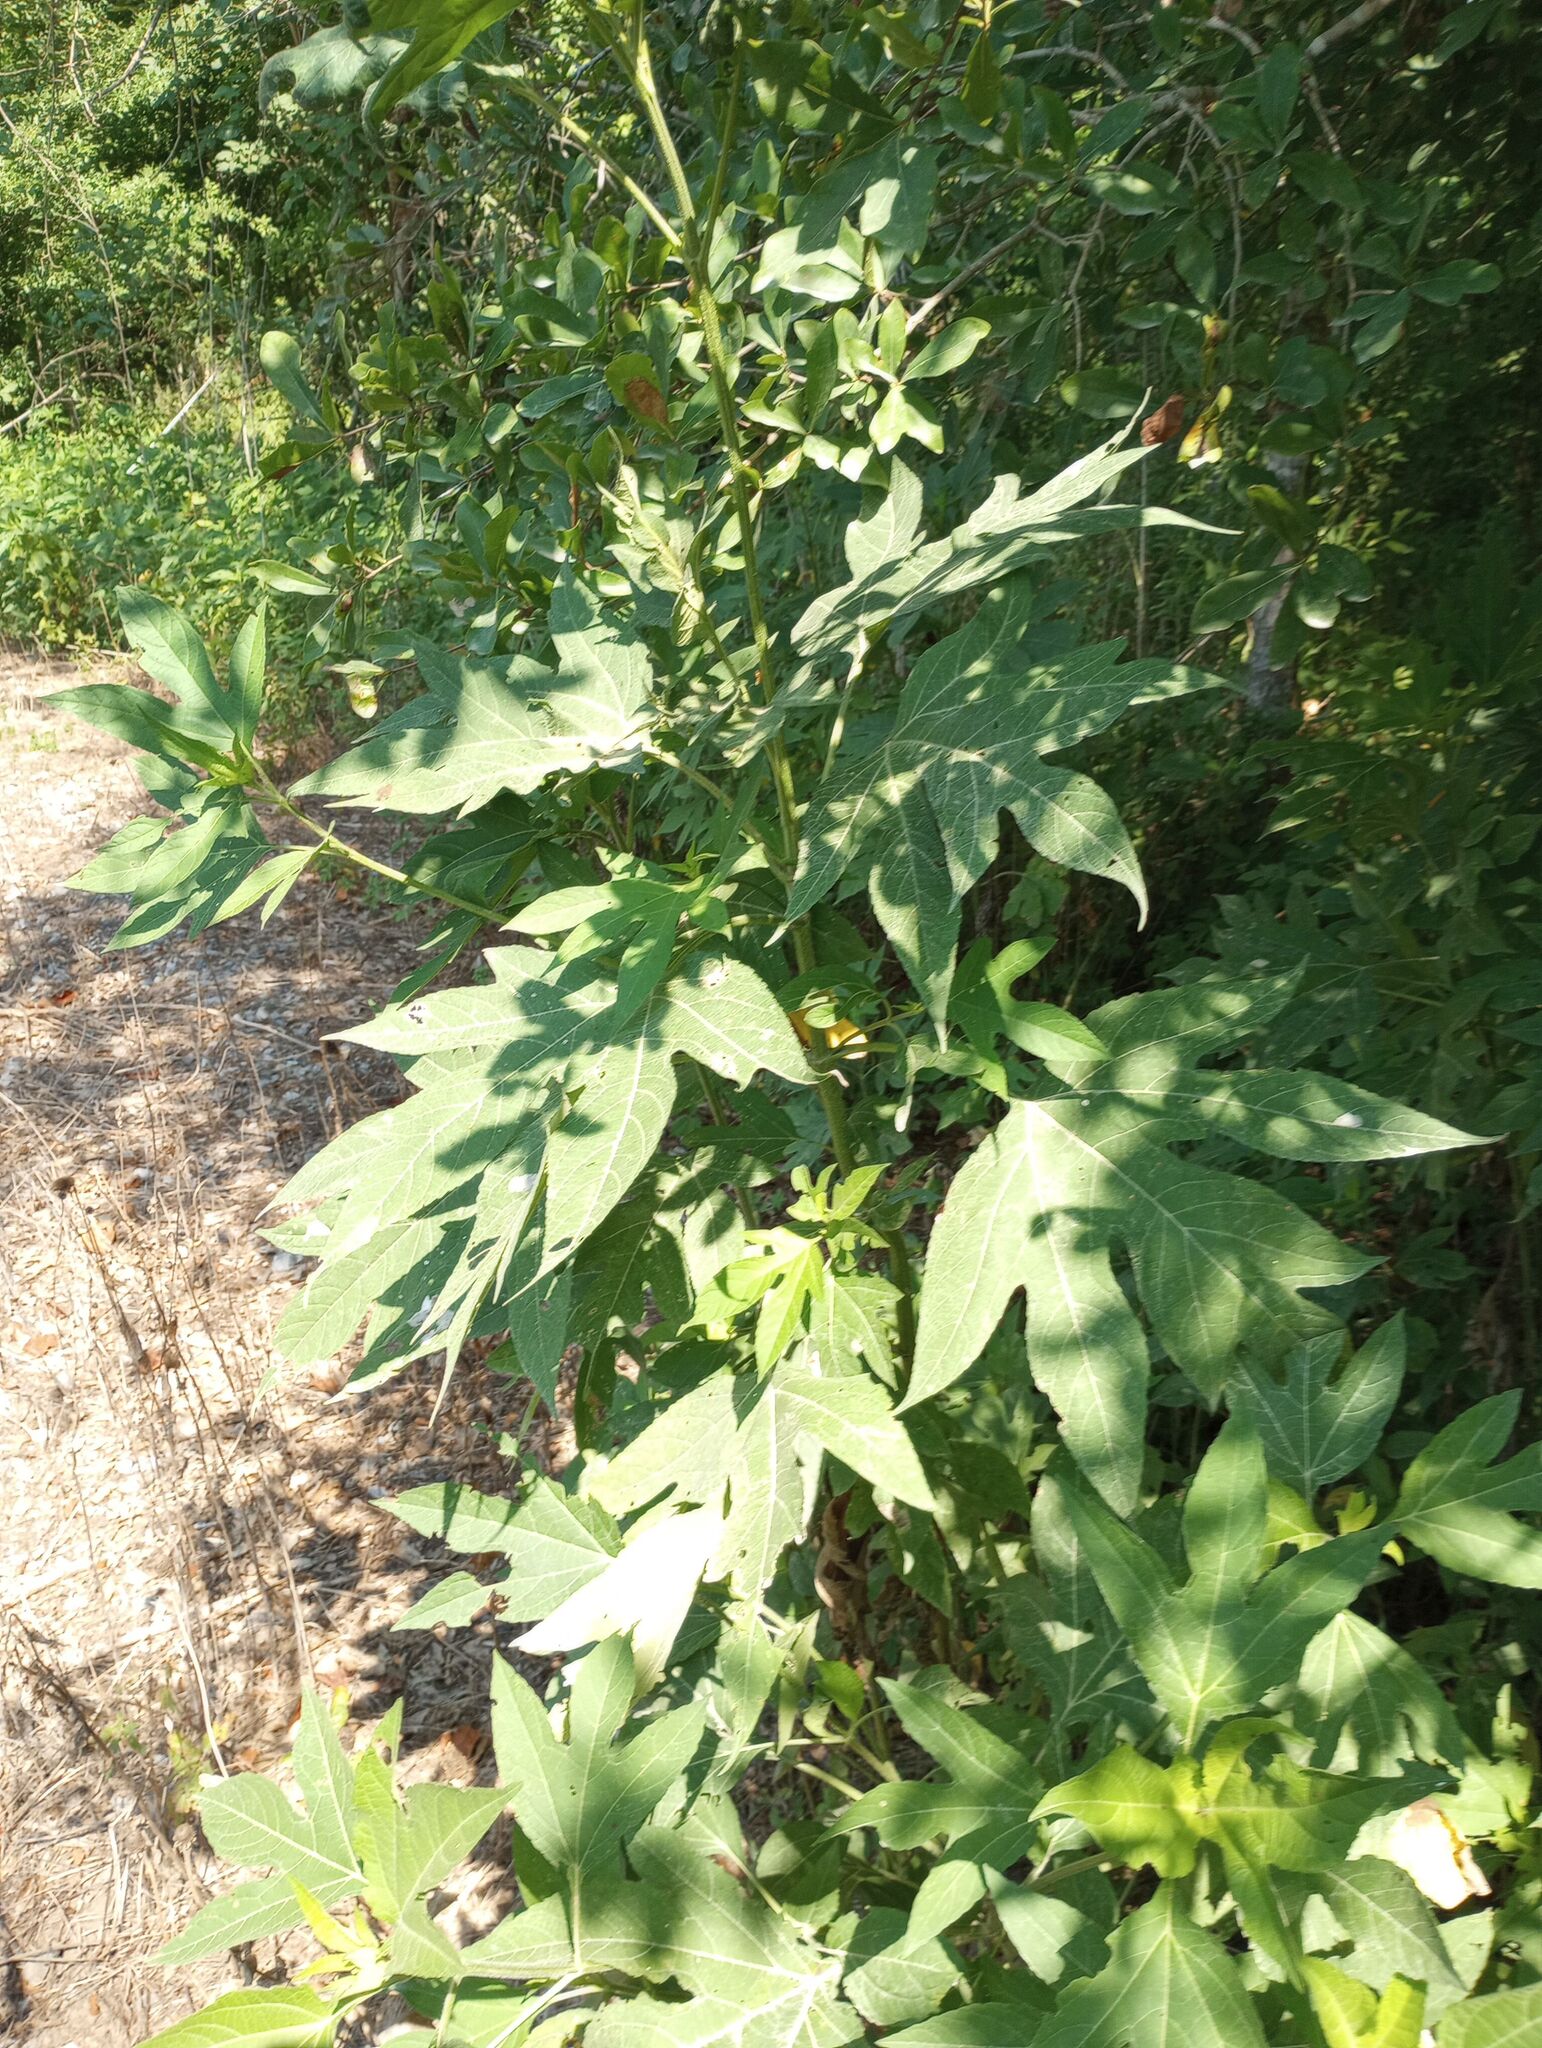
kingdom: Plantae
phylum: Tracheophyta
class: Magnoliopsida
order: Asterales
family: Asteraceae
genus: Ambrosia
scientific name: Ambrosia trifida
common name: Giant ragweed
